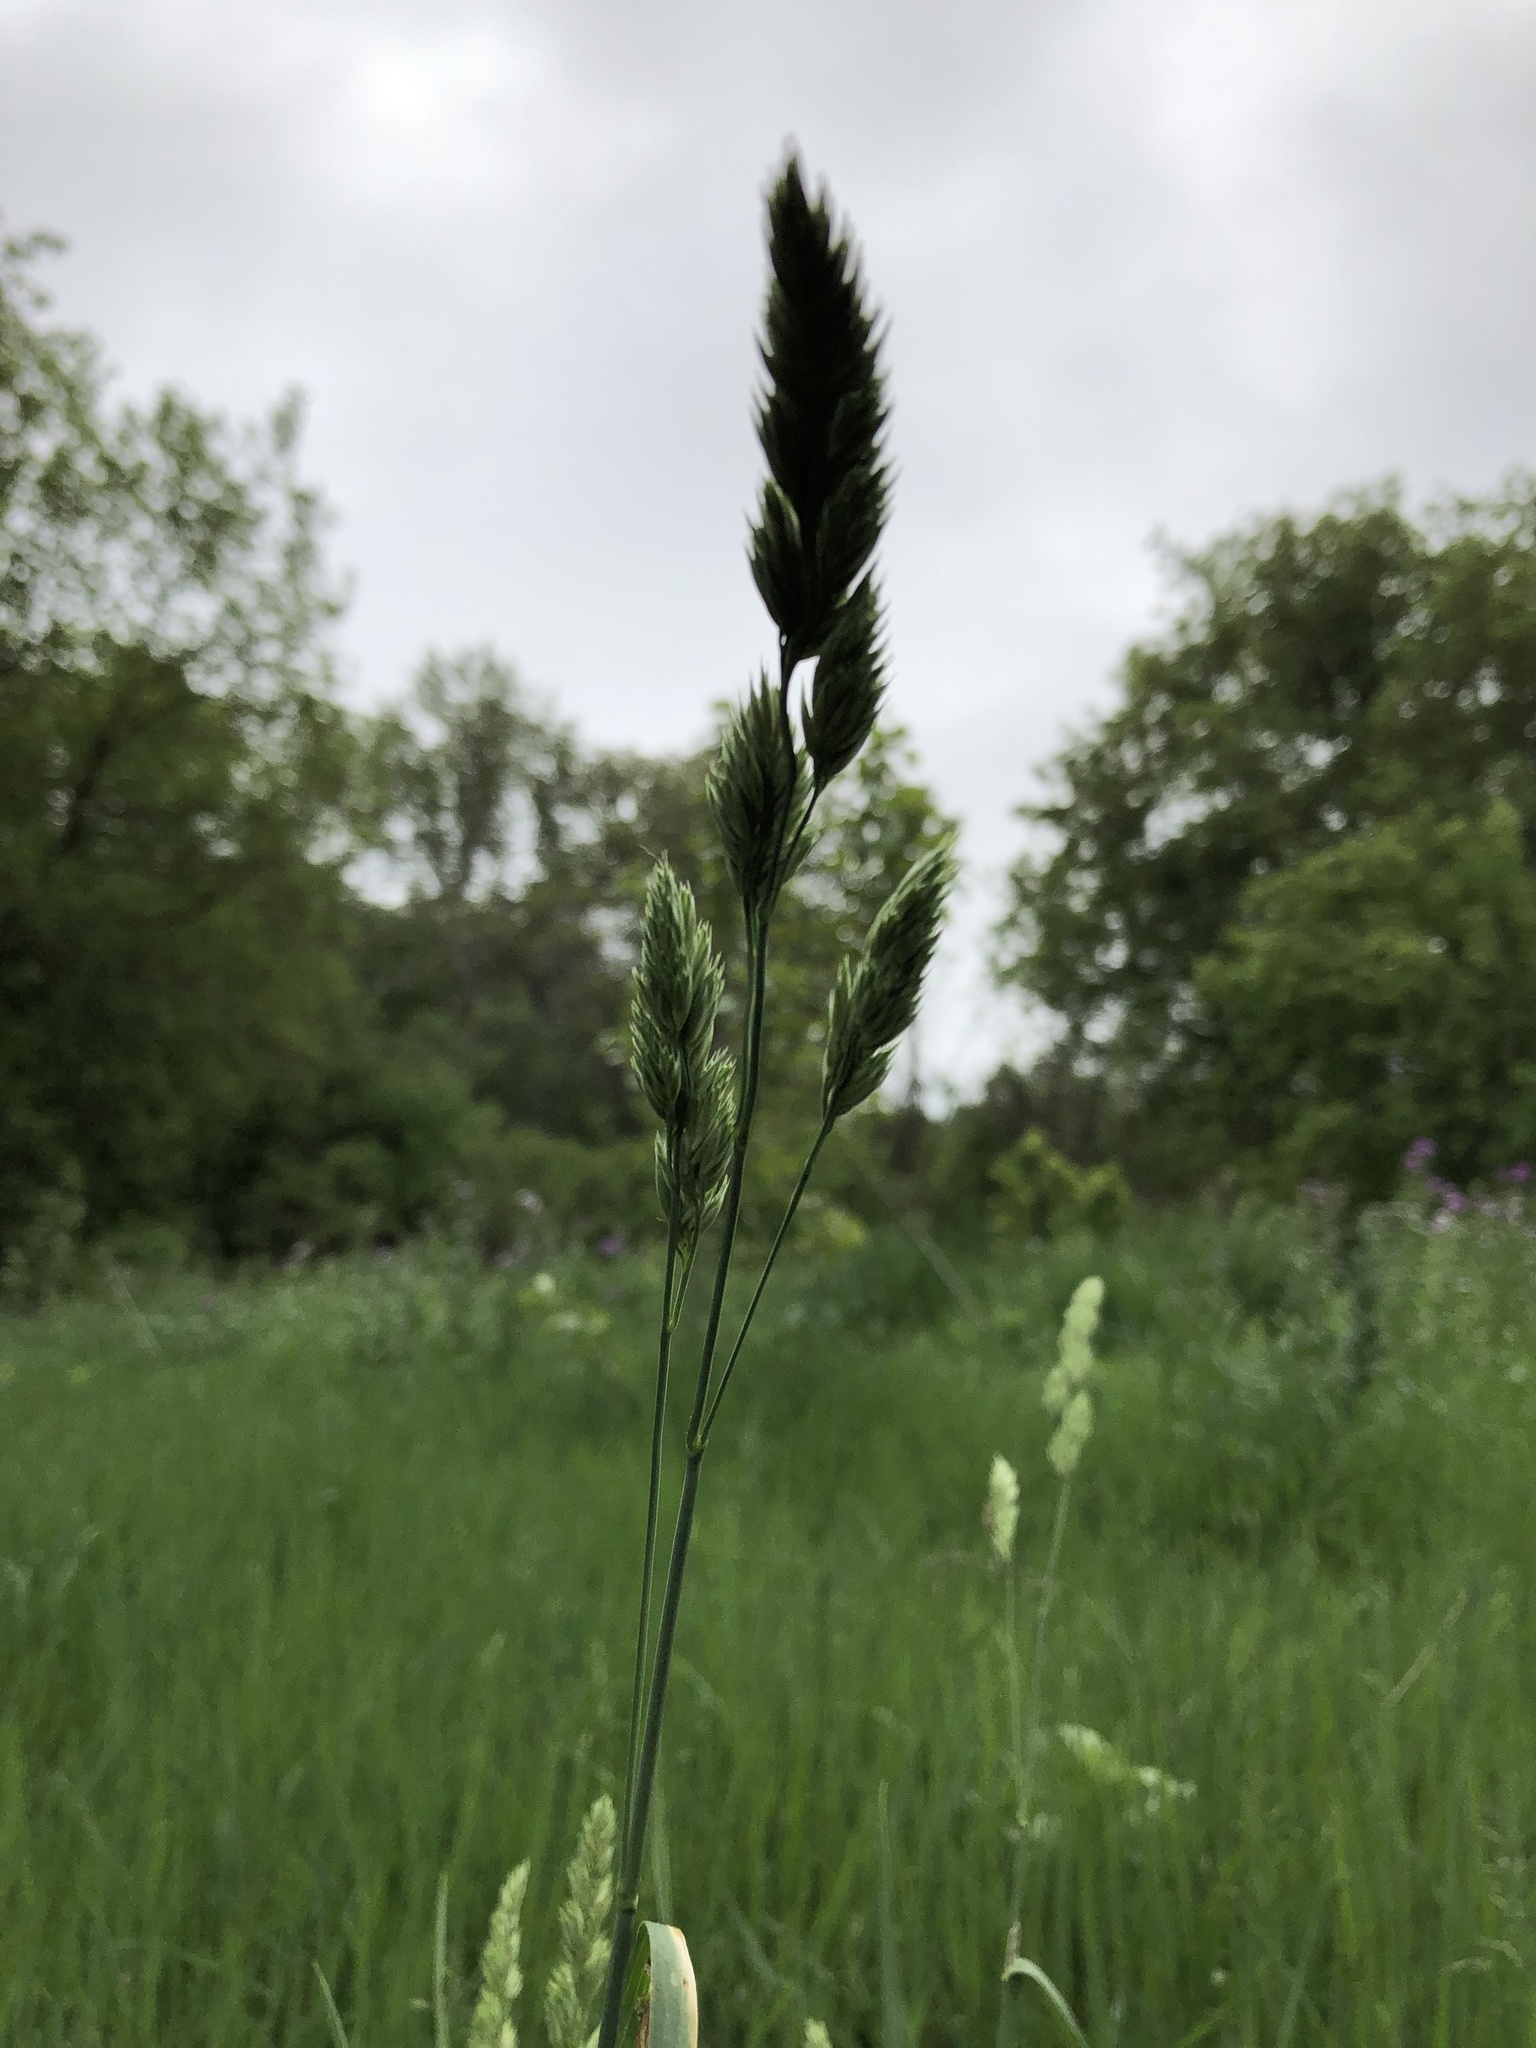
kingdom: Plantae
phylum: Tracheophyta
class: Liliopsida
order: Poales
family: Poaceae
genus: Dactylis
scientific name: Dactylis glomerata
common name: Orchardgrass
